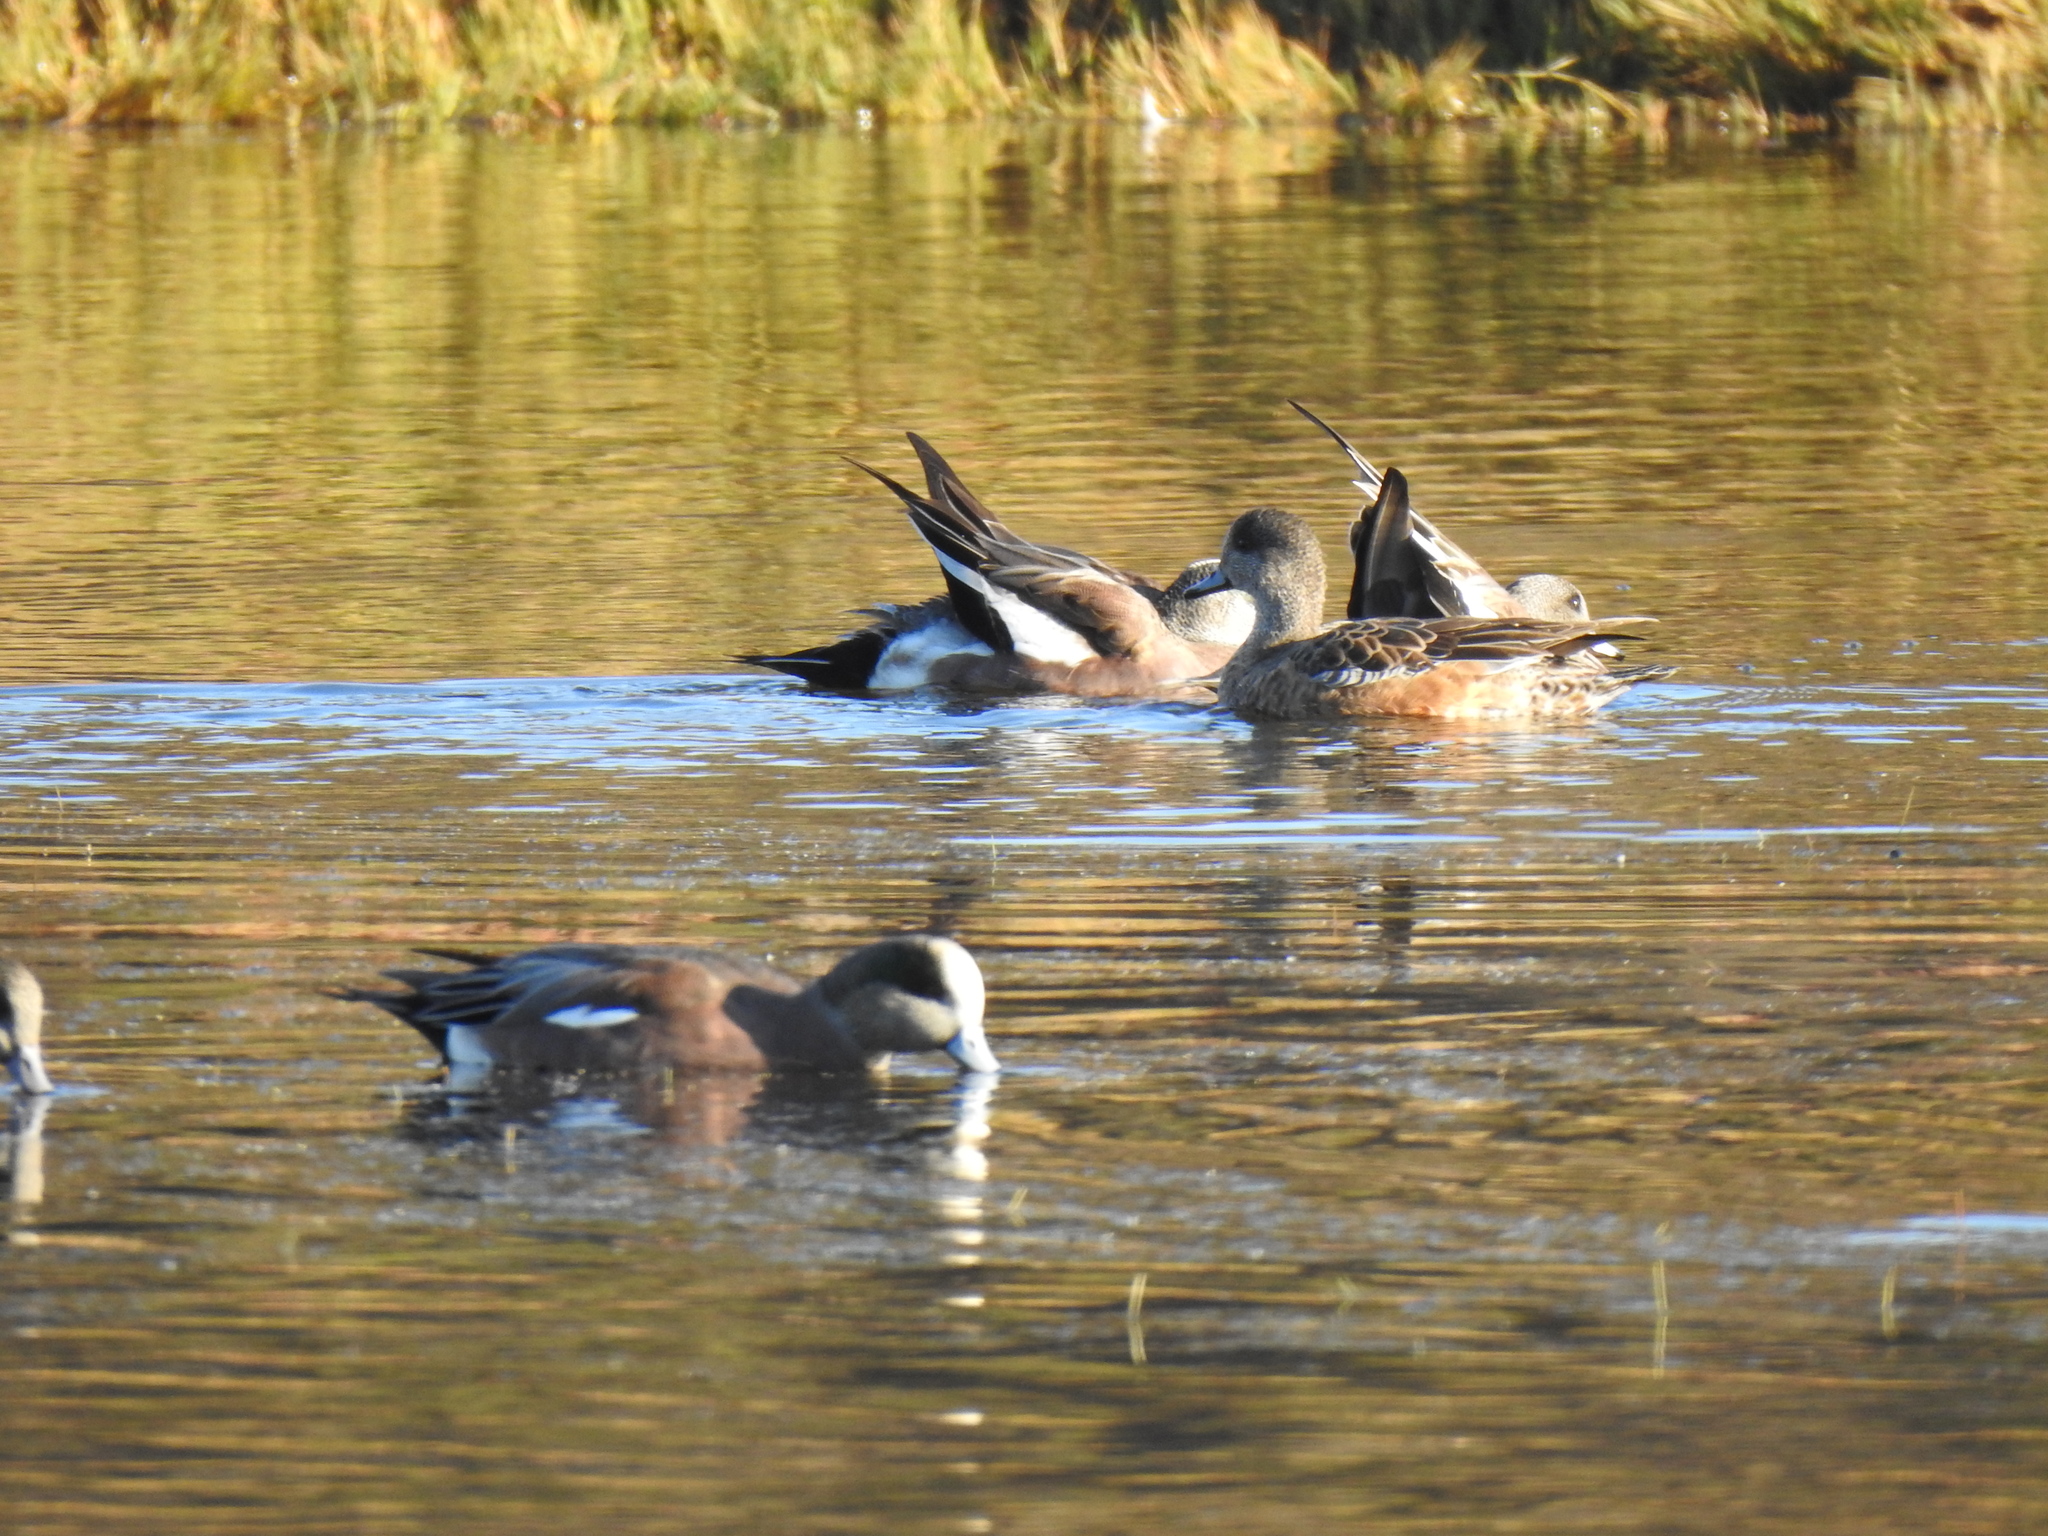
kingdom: Animalia
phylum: Chordata
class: Aves
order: Anseriformes
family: Anatidae
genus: Mareca
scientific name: Mareca americana
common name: American wigeon
